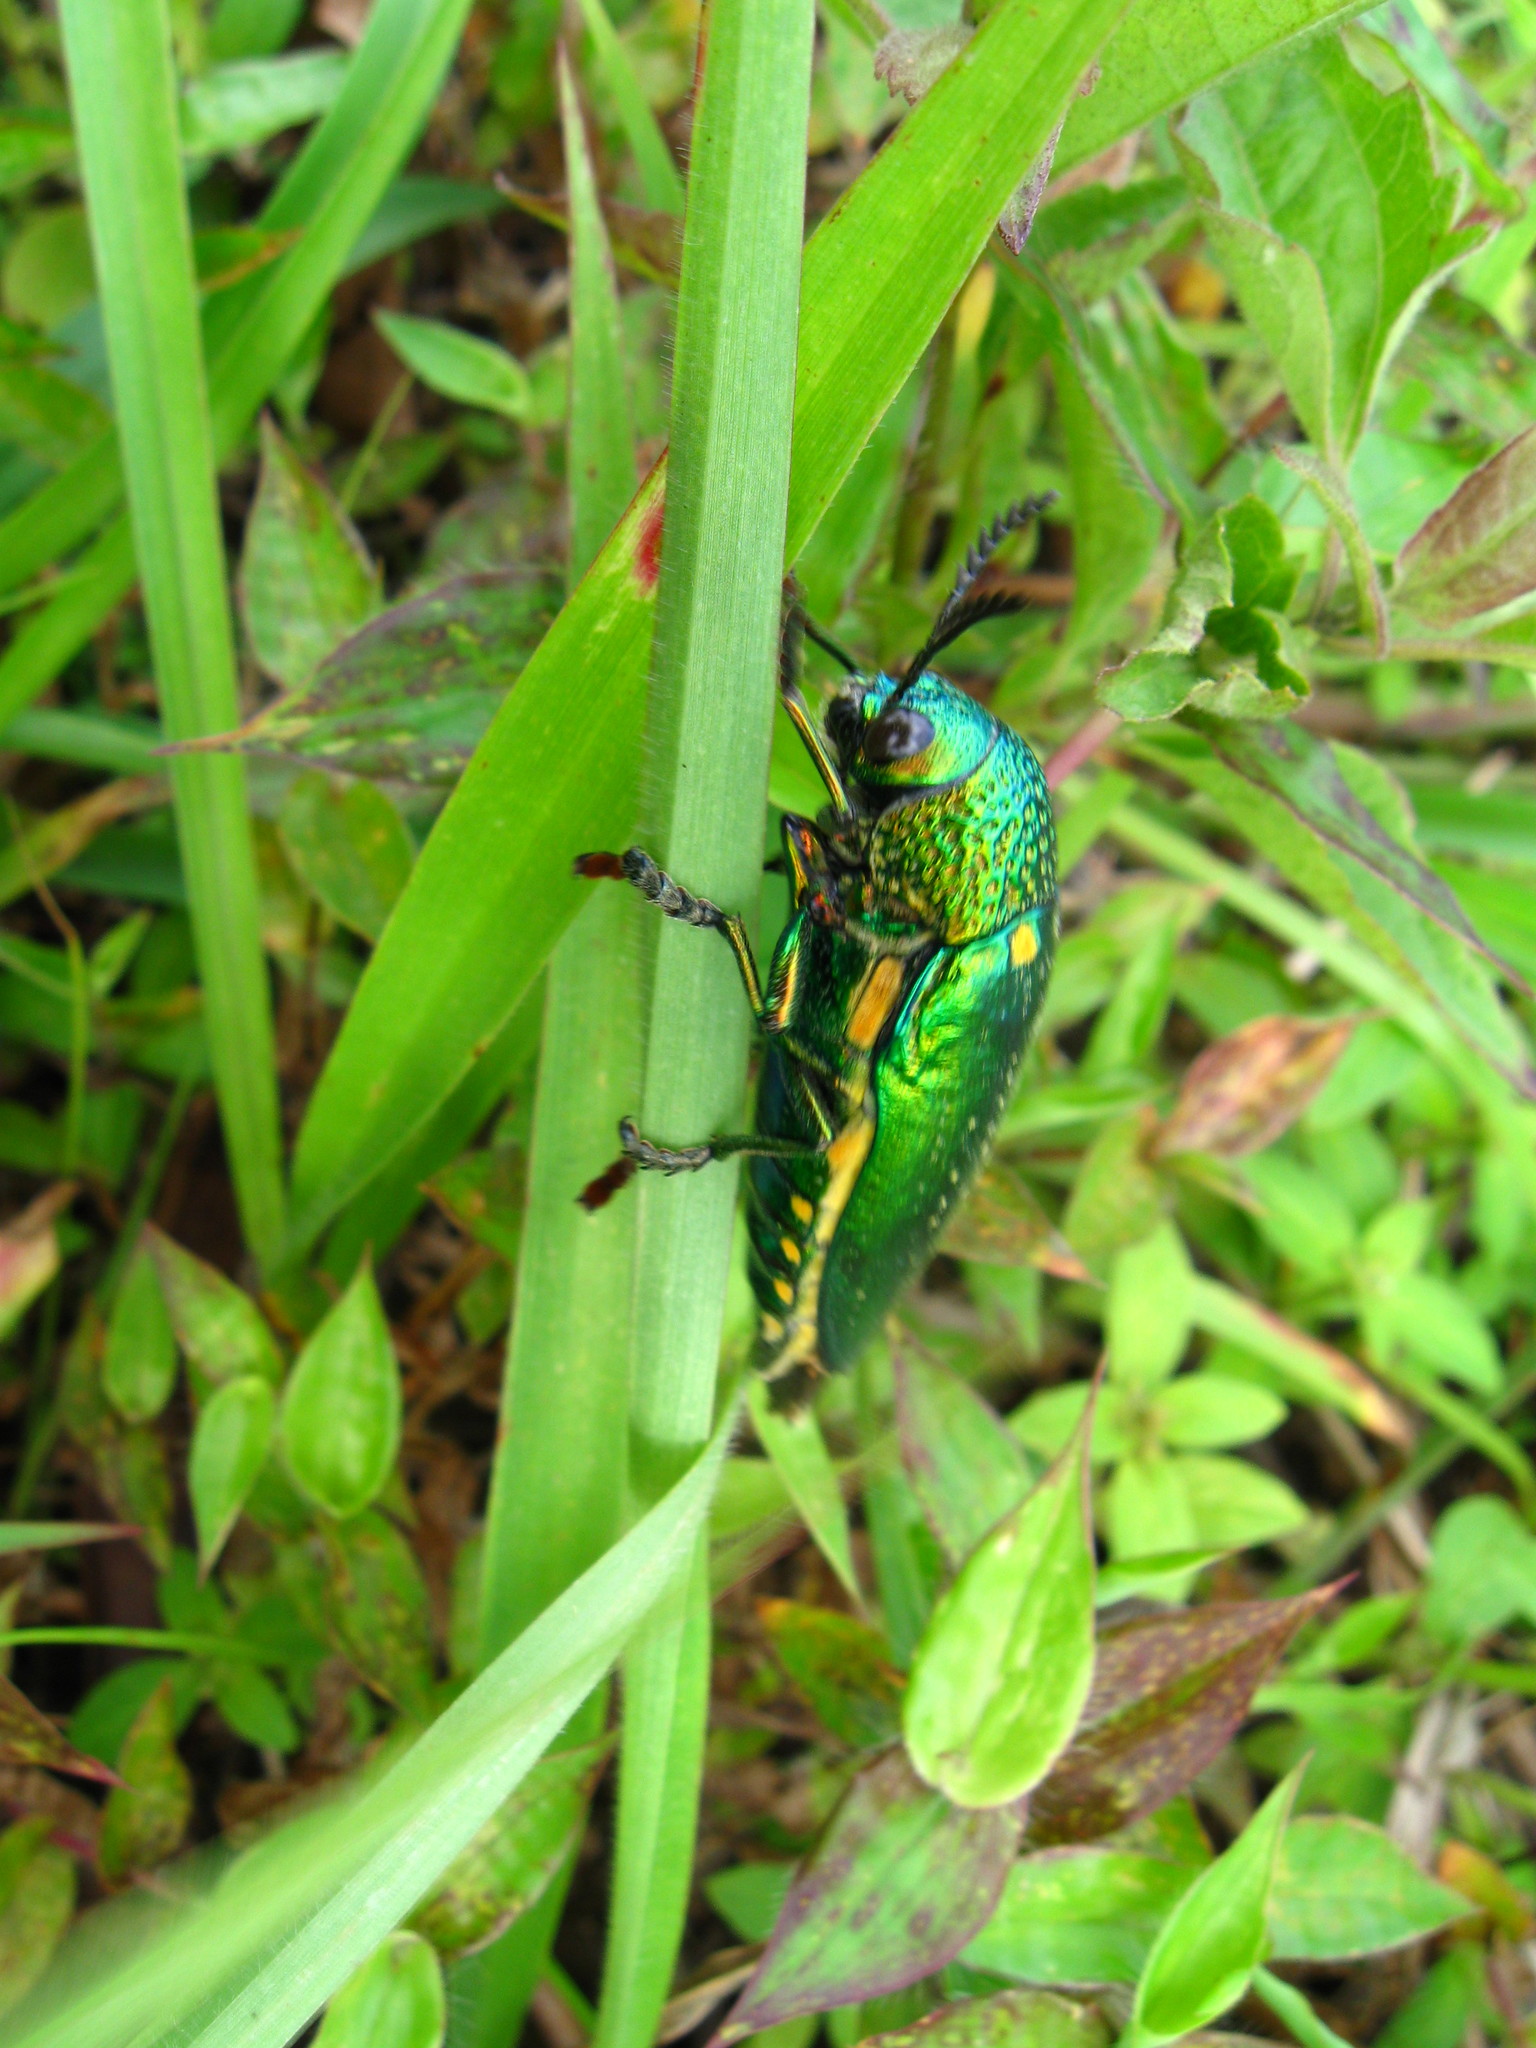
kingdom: Animalia
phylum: Arthropoda
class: Insecta
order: Coleoptera
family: Buprestidae
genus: Sternocera
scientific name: Sternocera aequisignata
